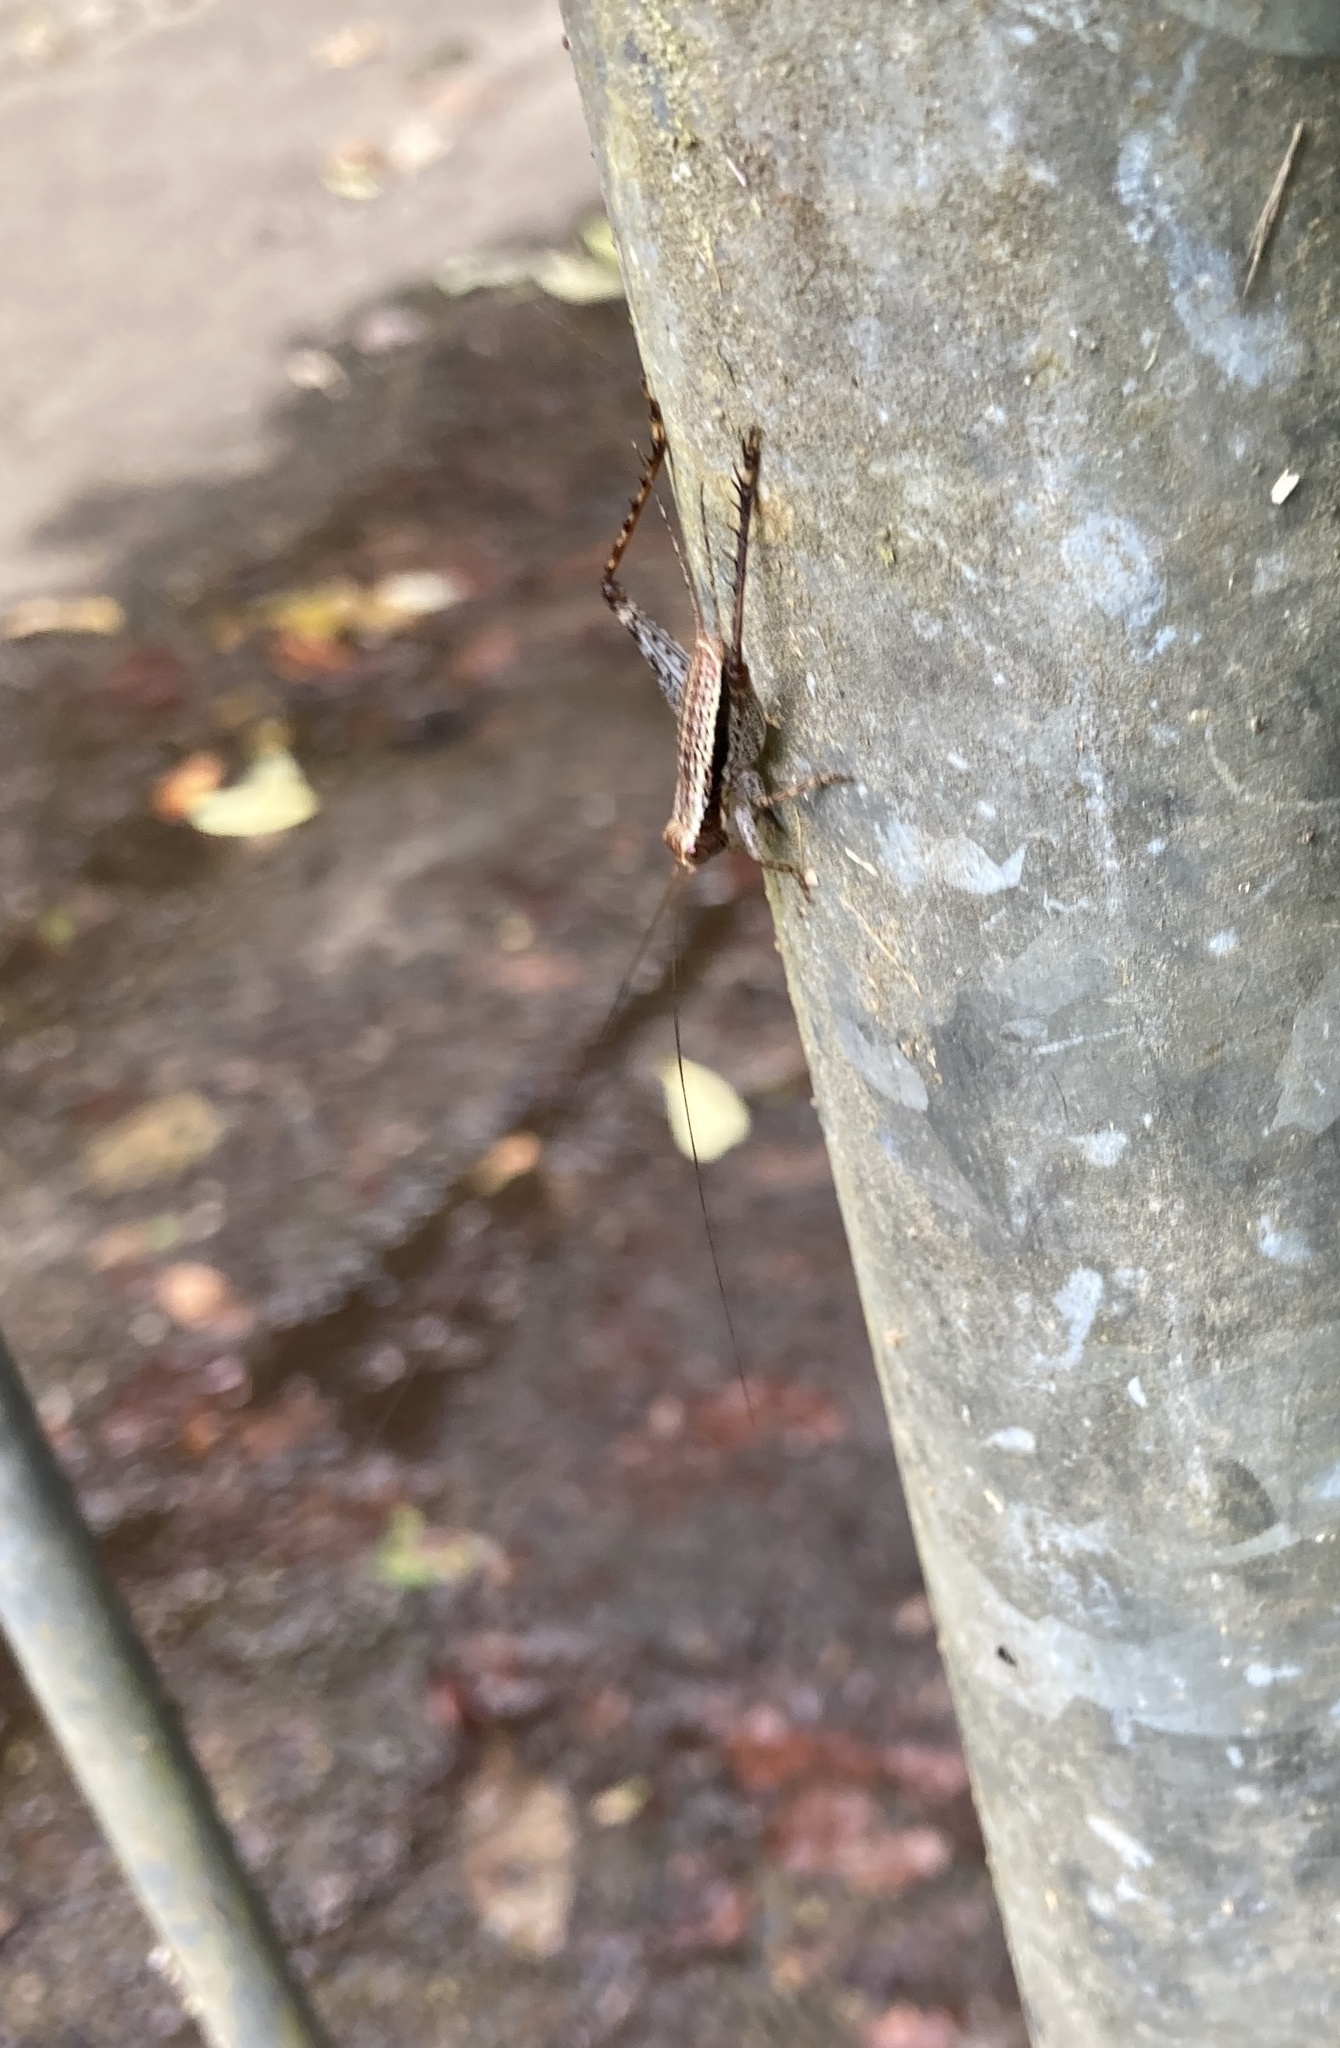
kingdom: Animalia
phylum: Arthropoda
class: Insecta
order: Orthoptera
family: Gryllidae
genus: Cardiodactylus
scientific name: Cardiodactylus novaeguineae
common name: Sad cricket
